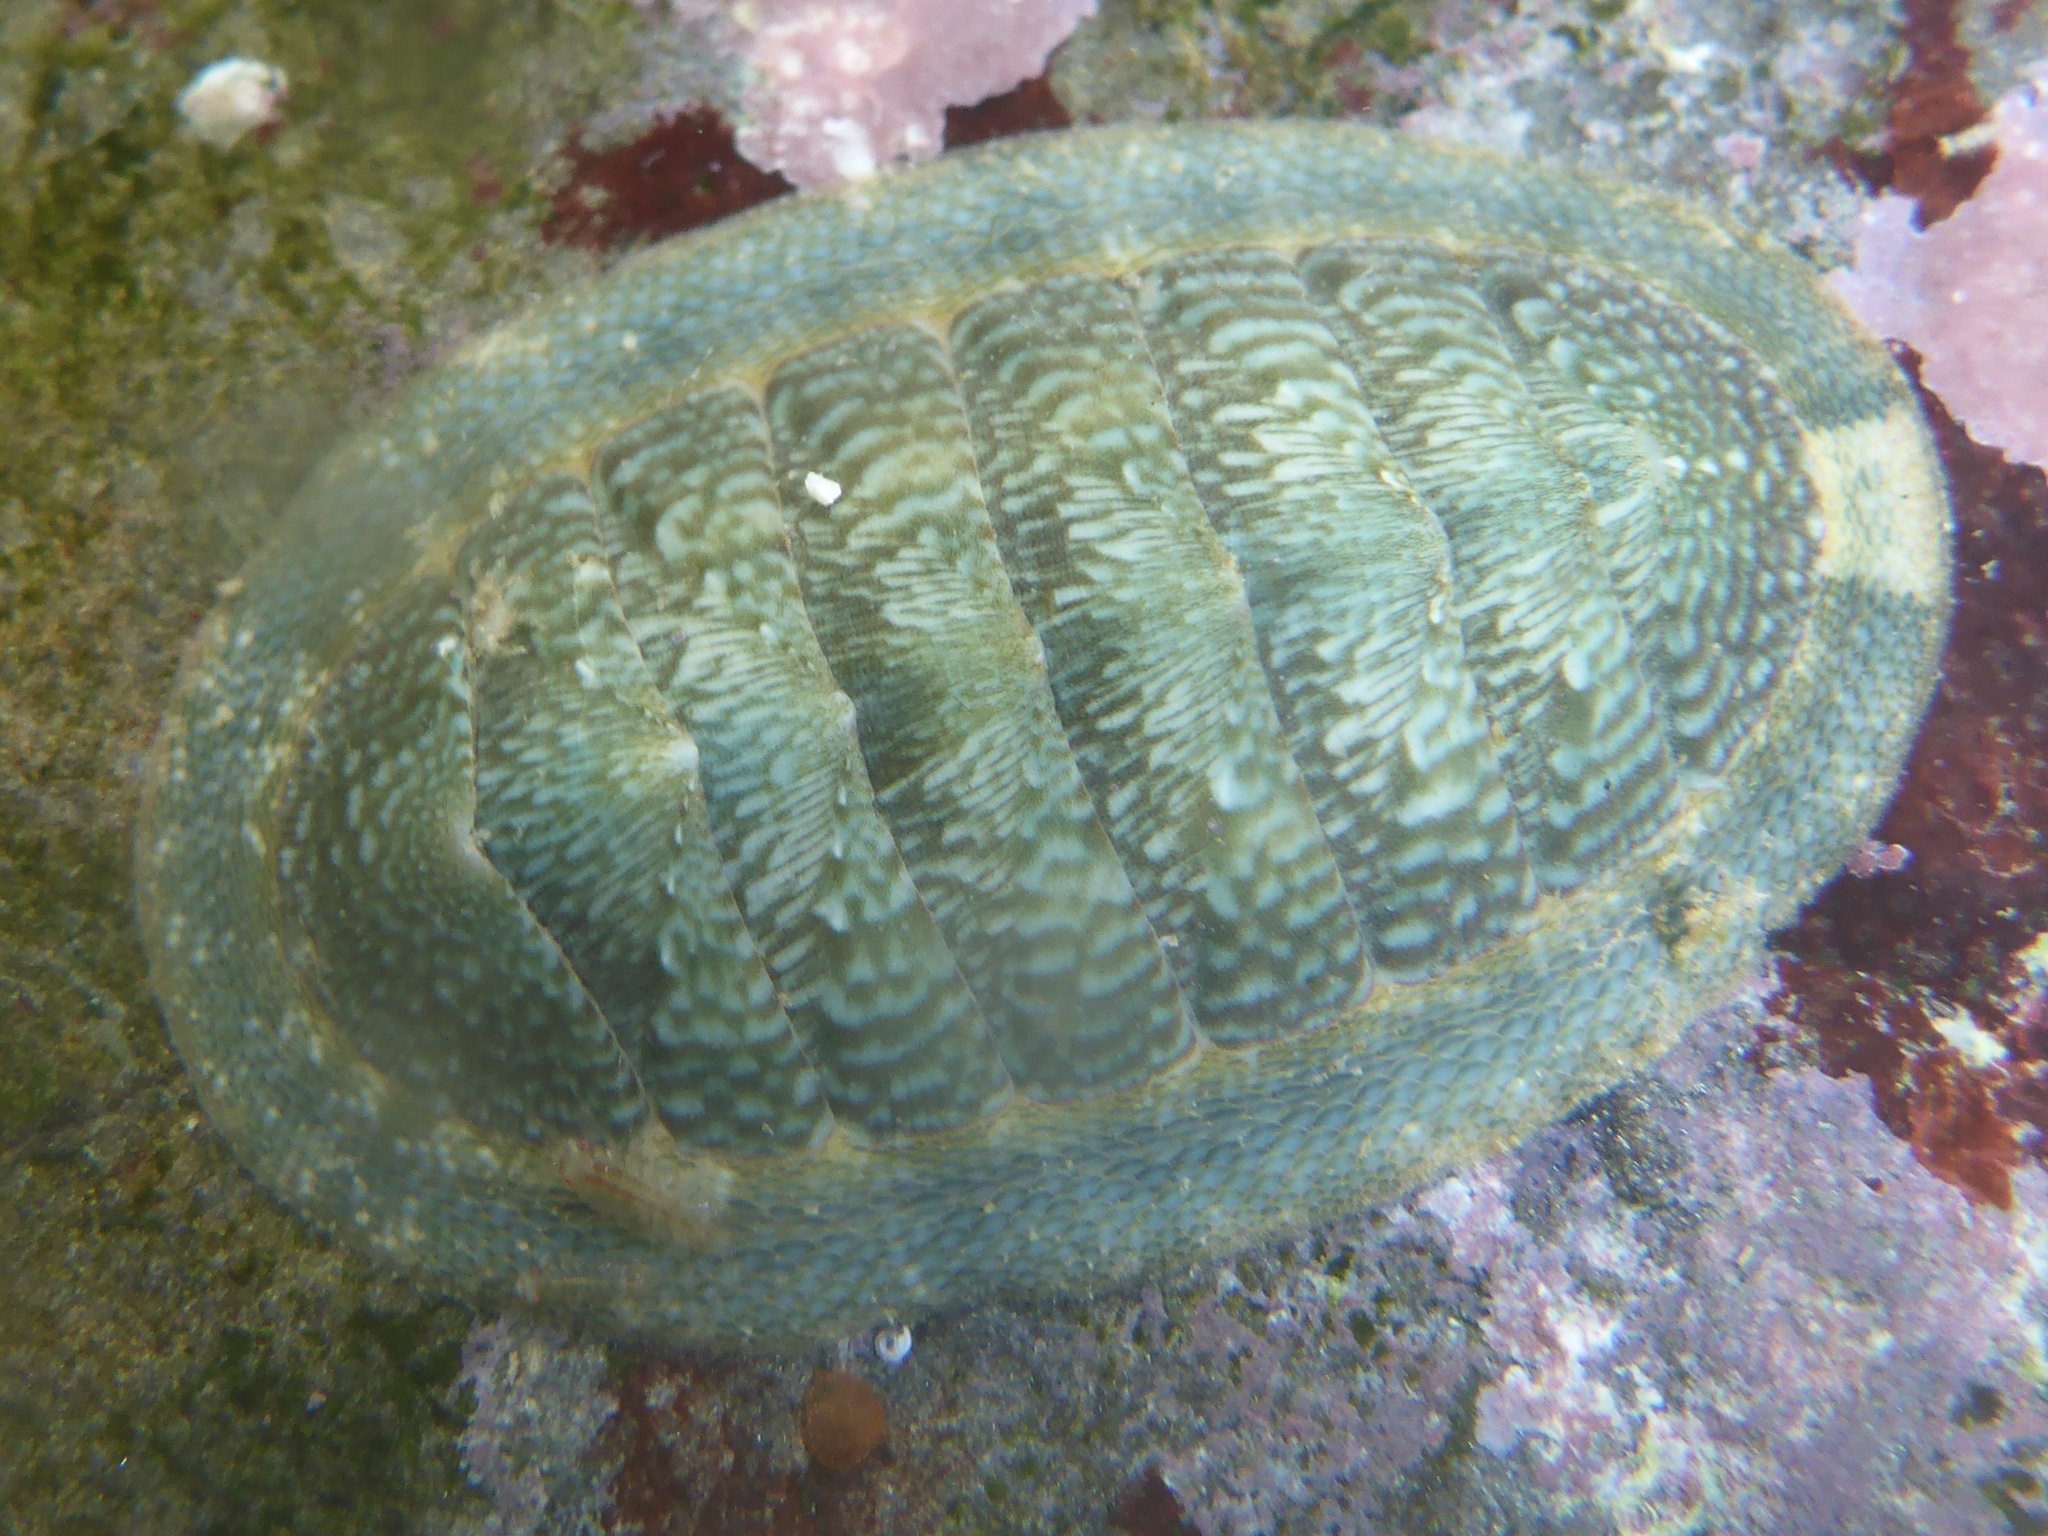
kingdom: Animalia
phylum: Mollusca
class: Polyplacophora
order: Chitonida
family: Chitonidae
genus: Rhyssoplax
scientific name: Rhyssoplax linsleyi
